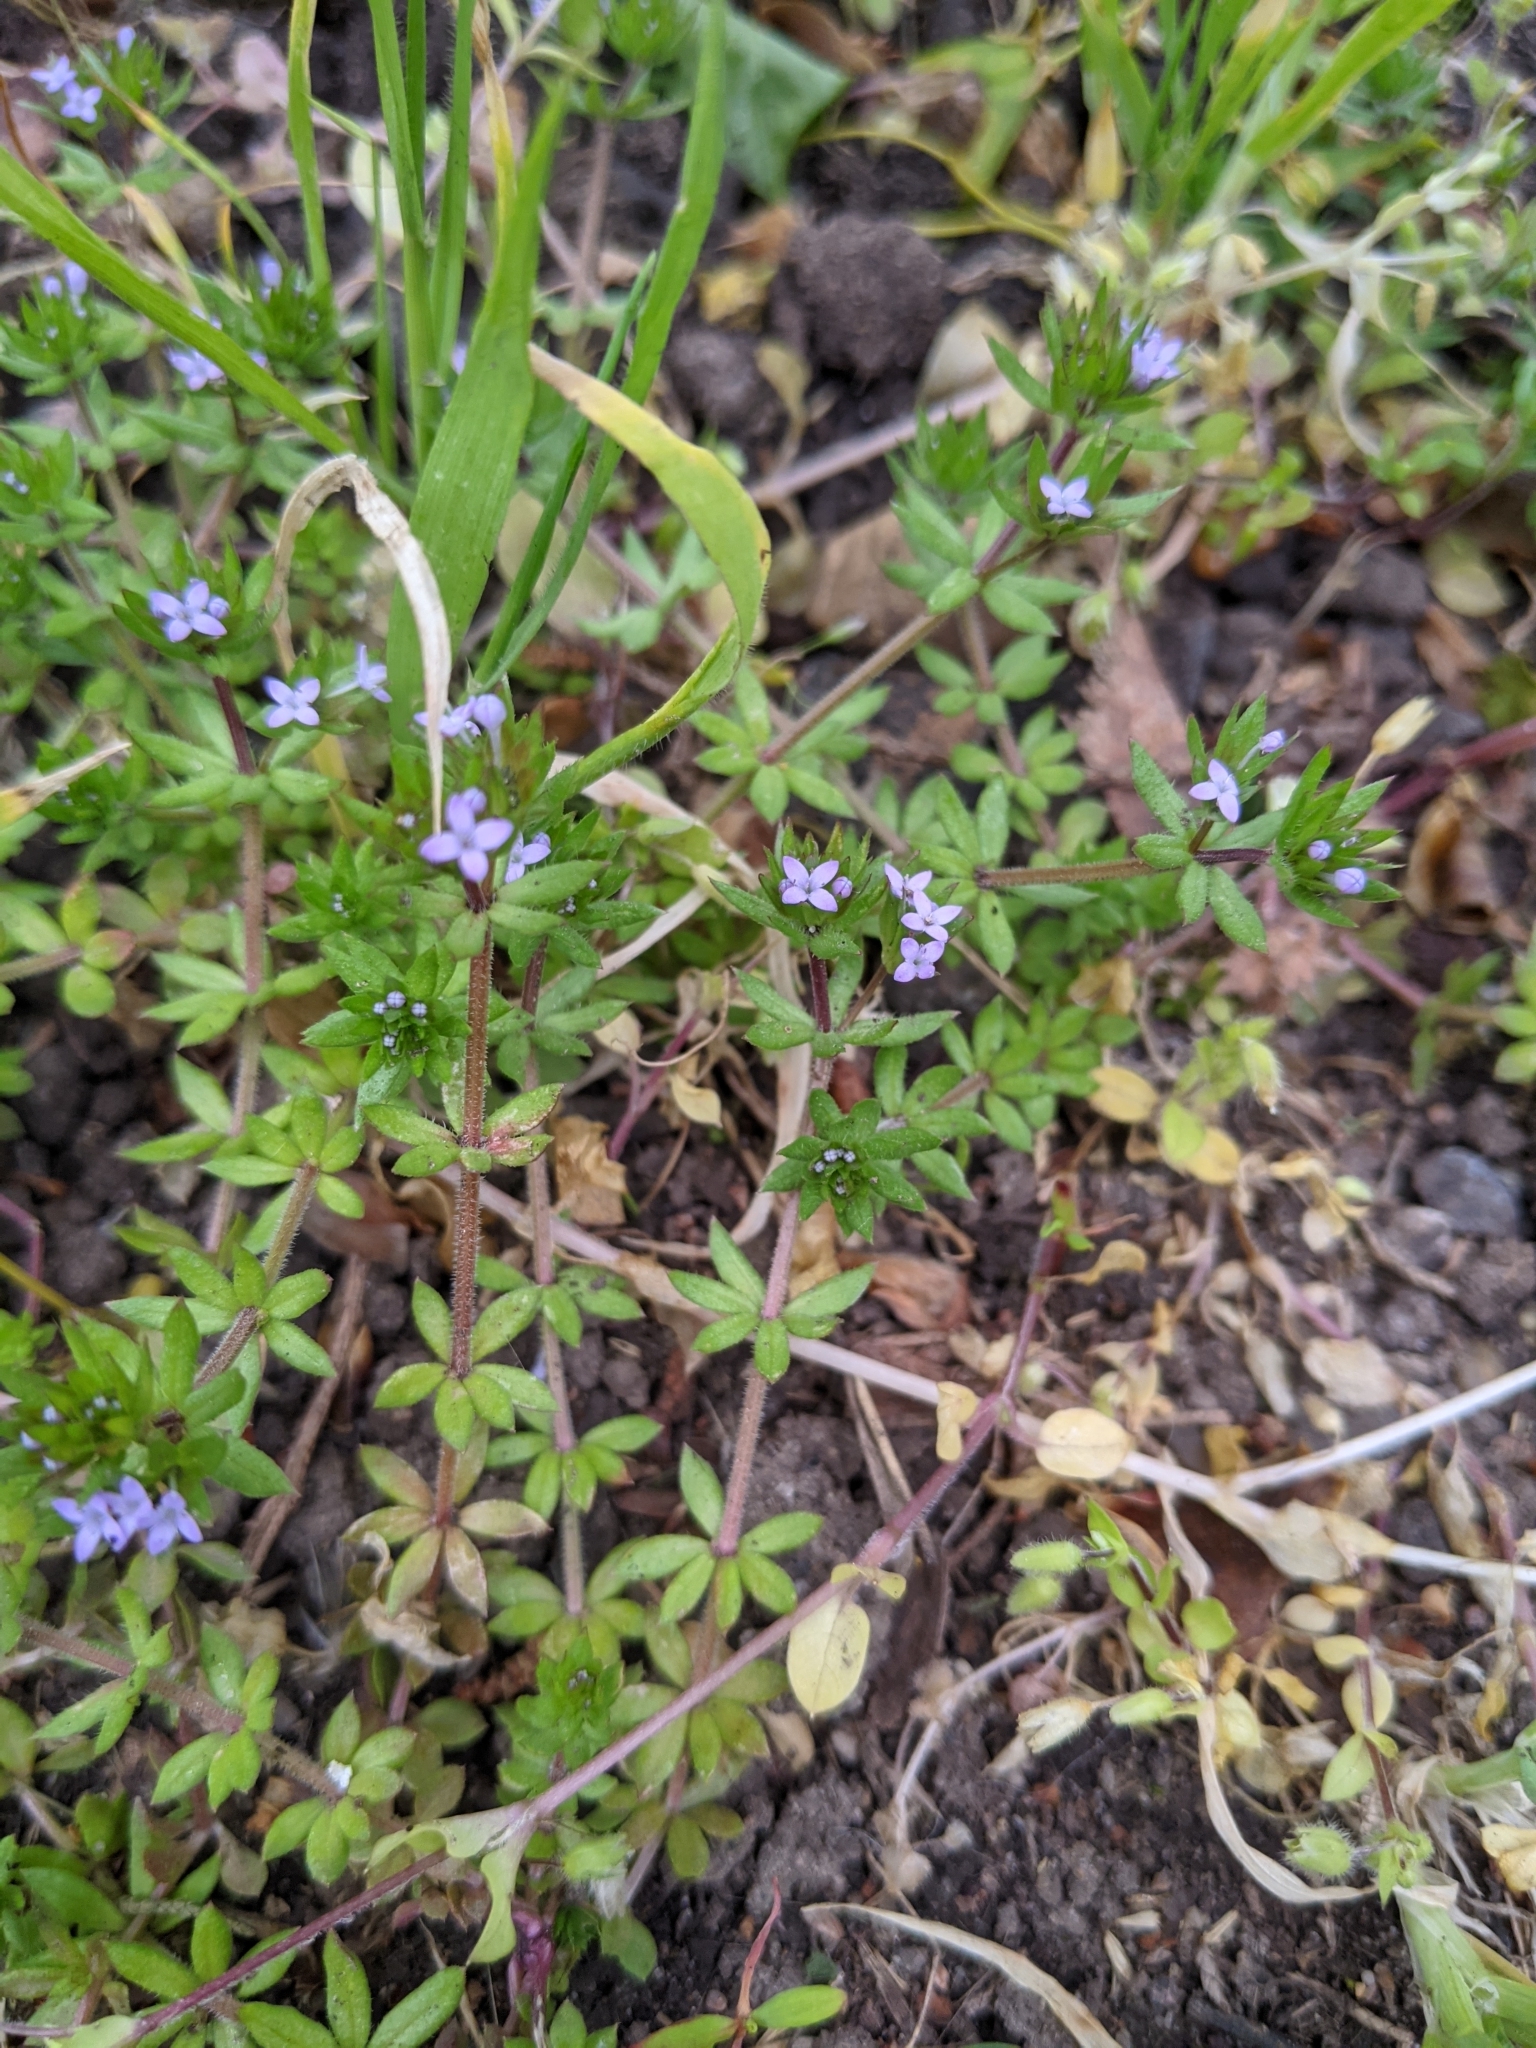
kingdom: Plantae
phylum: Tracheophyta
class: Magnoliopsida
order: Gentianales
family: Rubiaceae
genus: Sherardia
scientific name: Sherardia arvensis
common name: Field madder
